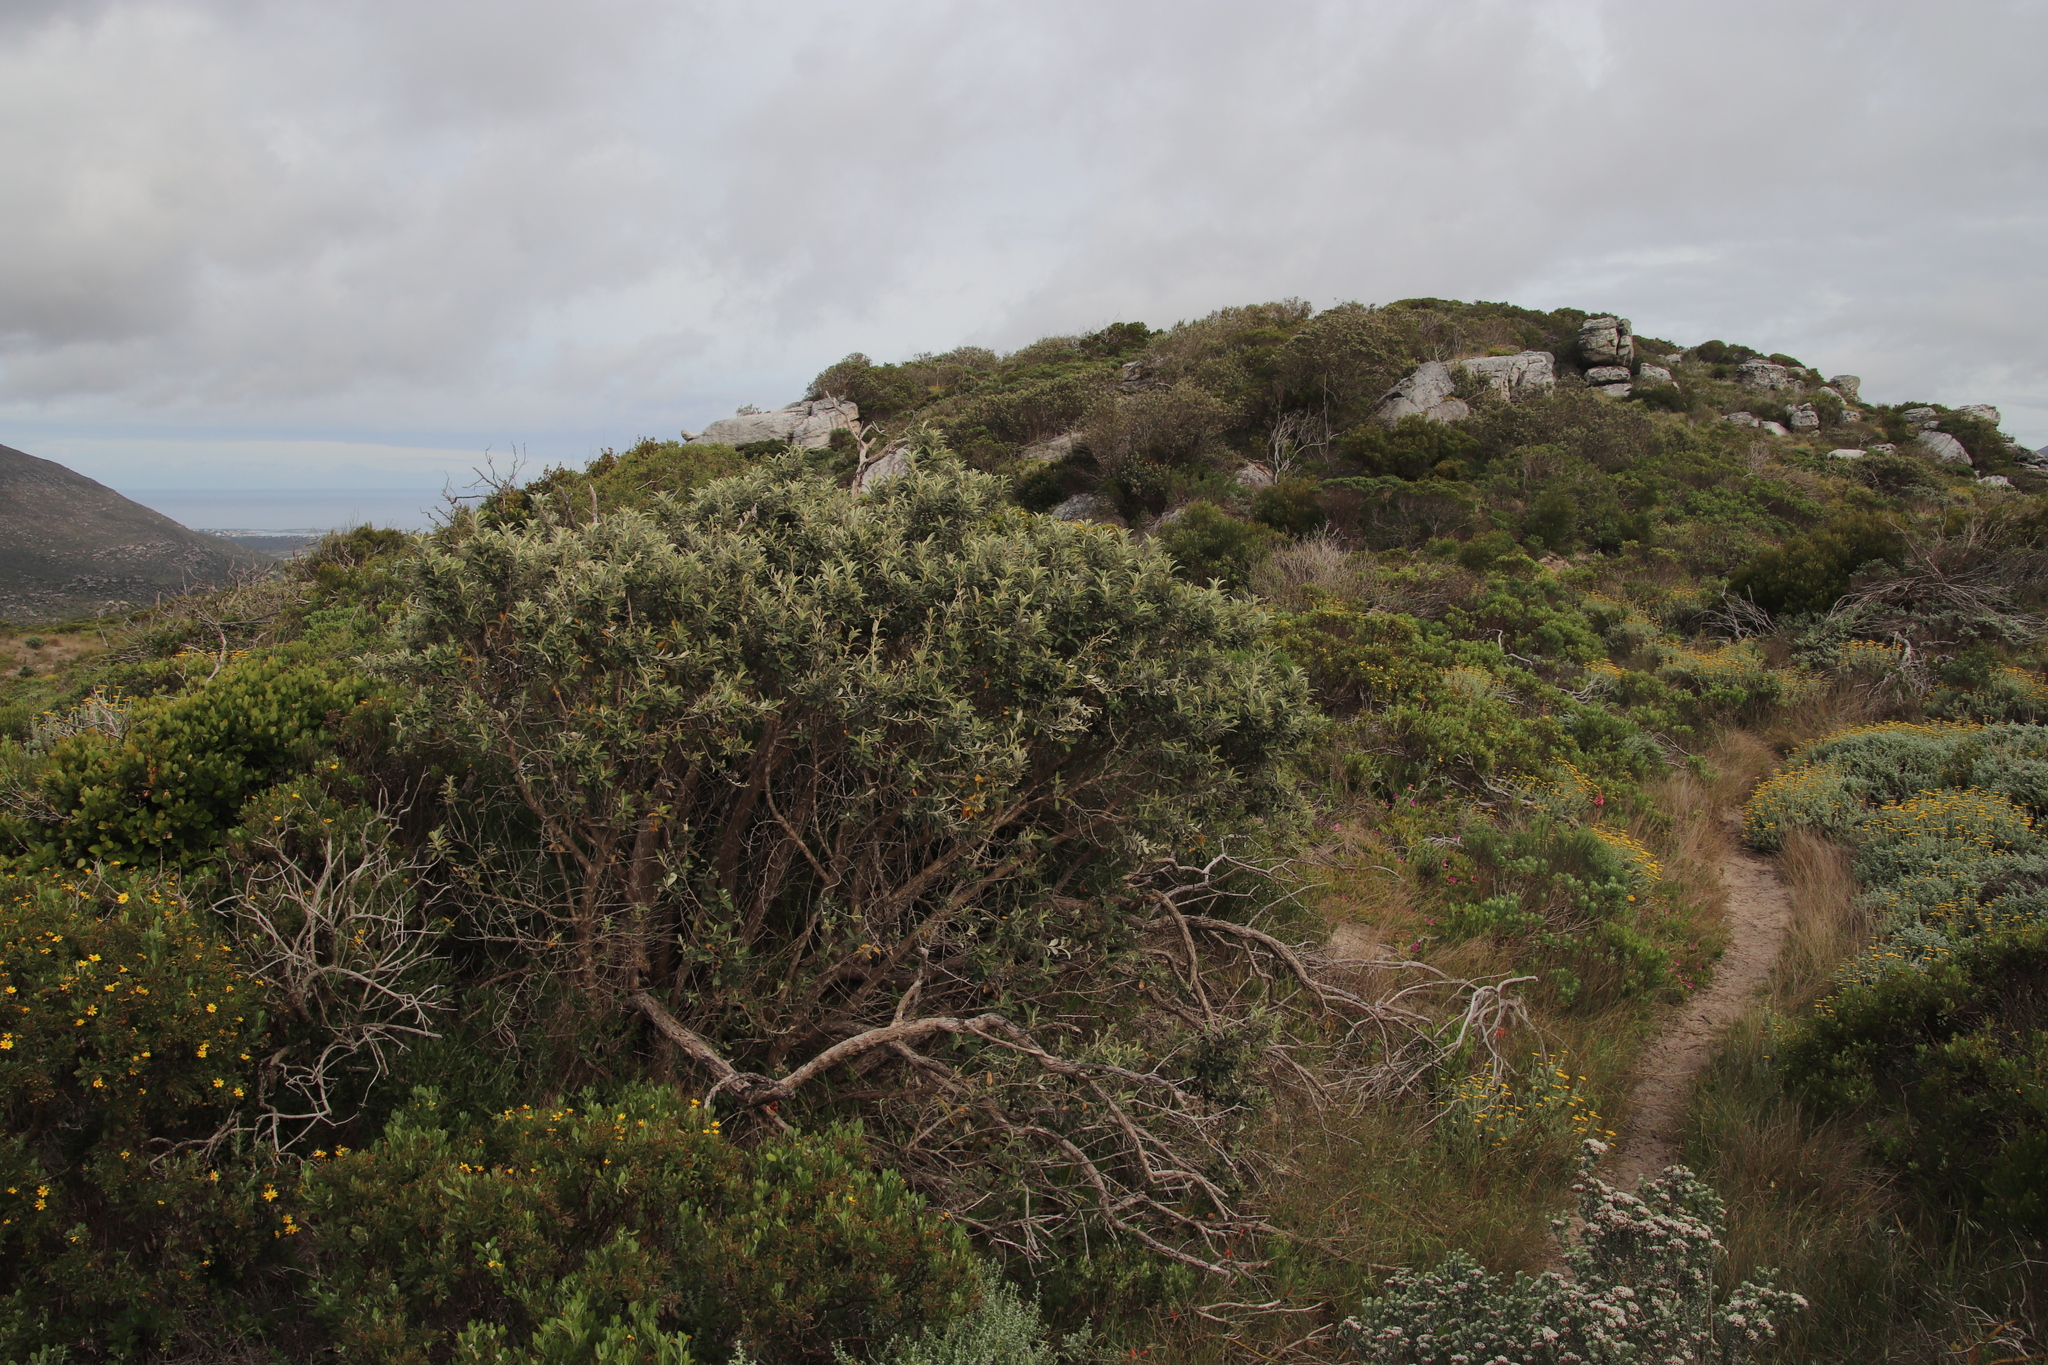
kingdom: Plantae
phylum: Tracheophyta
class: Magnoliopsida
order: Asterales
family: Asteraceae
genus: Tarchonanthus
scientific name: Tarchonanthus littoralis
